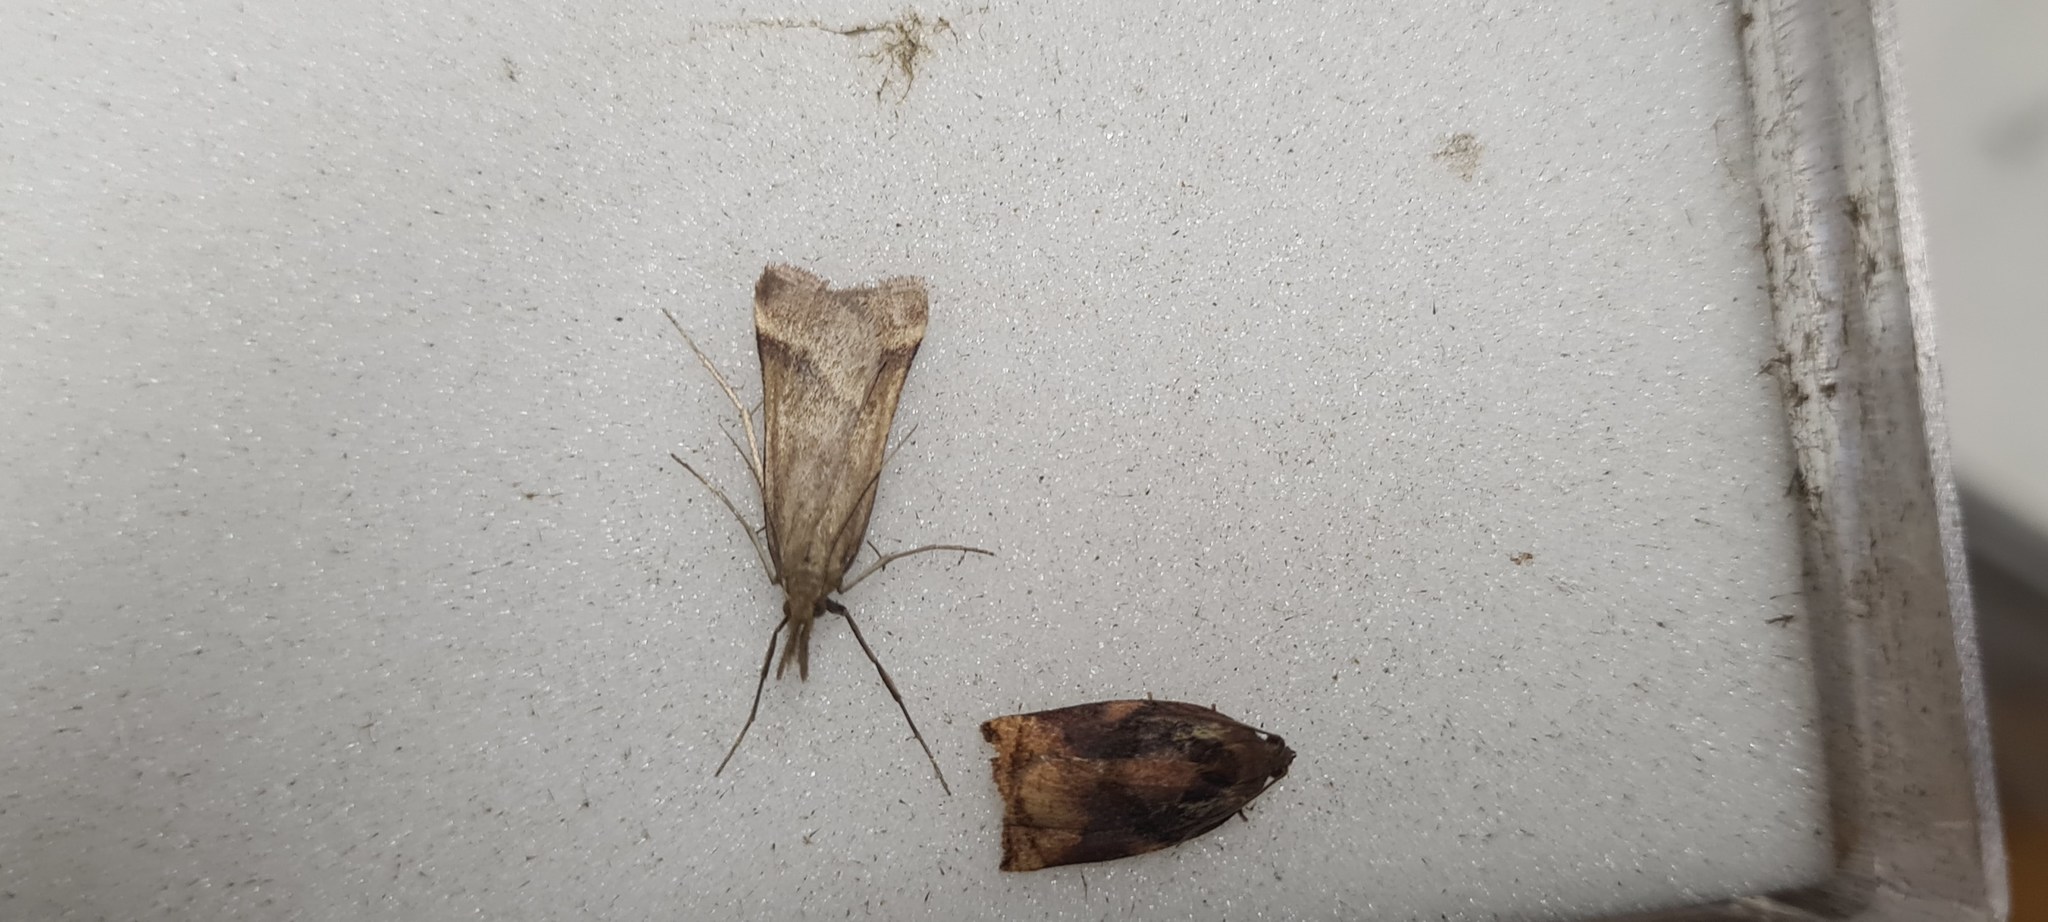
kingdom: Animalia
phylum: Arthropoda
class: Insecta
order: Lepidoptera
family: Pyralidae
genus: Synaphe
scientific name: Synaphe punctalis
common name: Long-legged tabby
